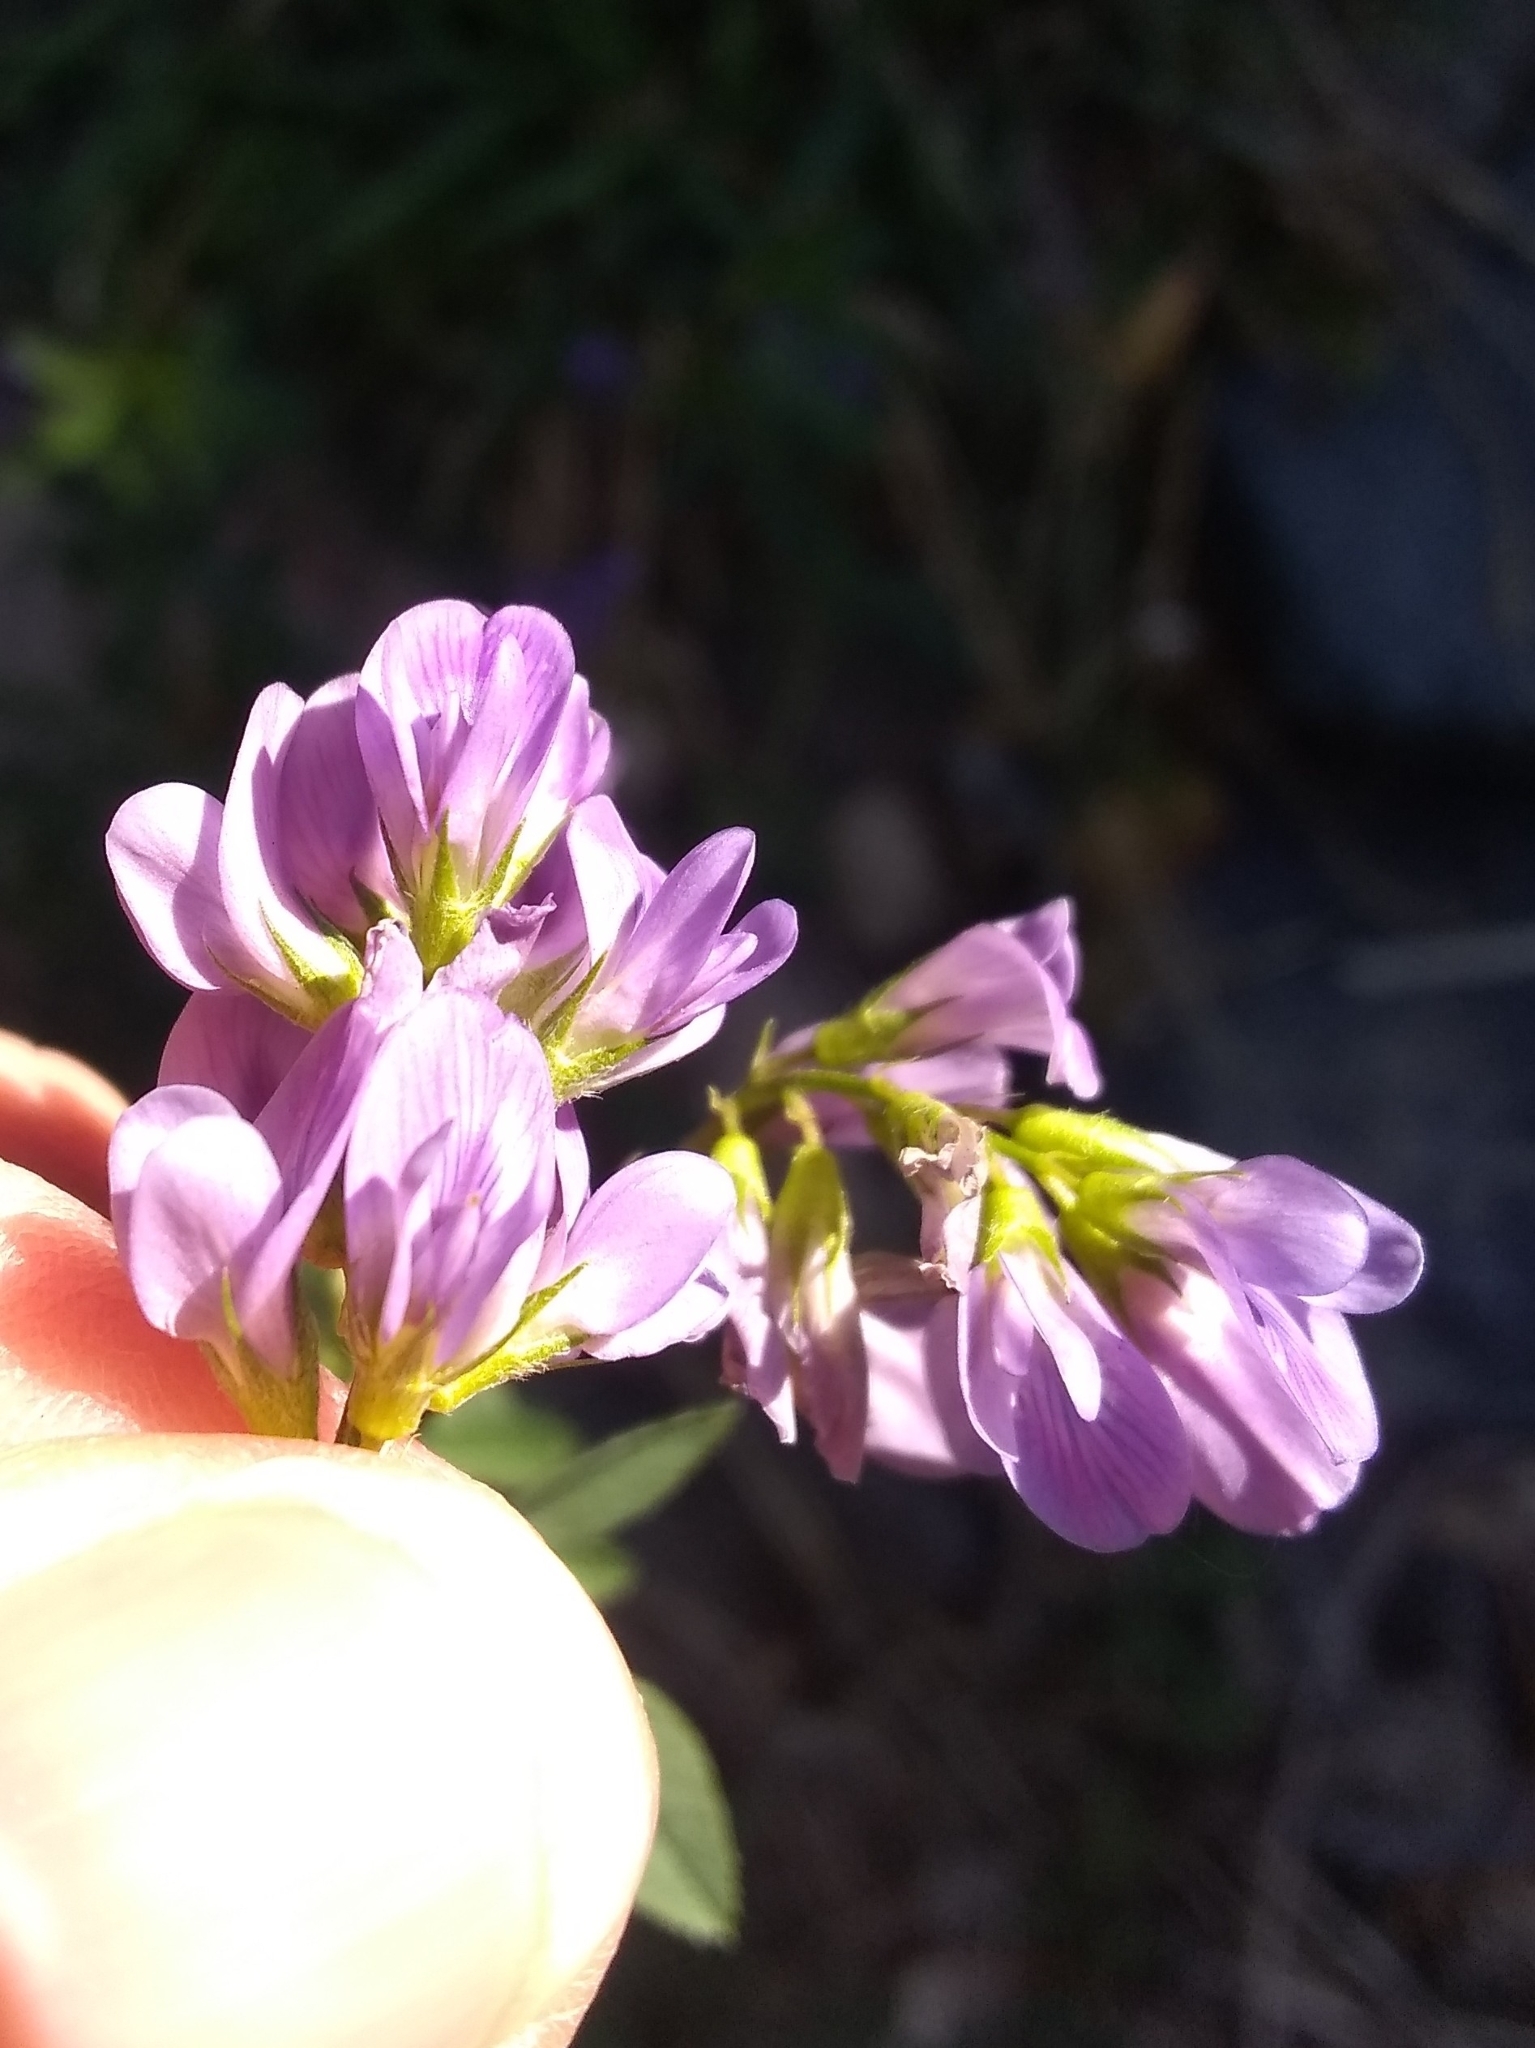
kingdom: Plantae
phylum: Tracheophyta
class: Magnoliopsida
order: Fabales
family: Fabaceae
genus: Medicago
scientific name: Medicago sativa
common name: Alfalfa
